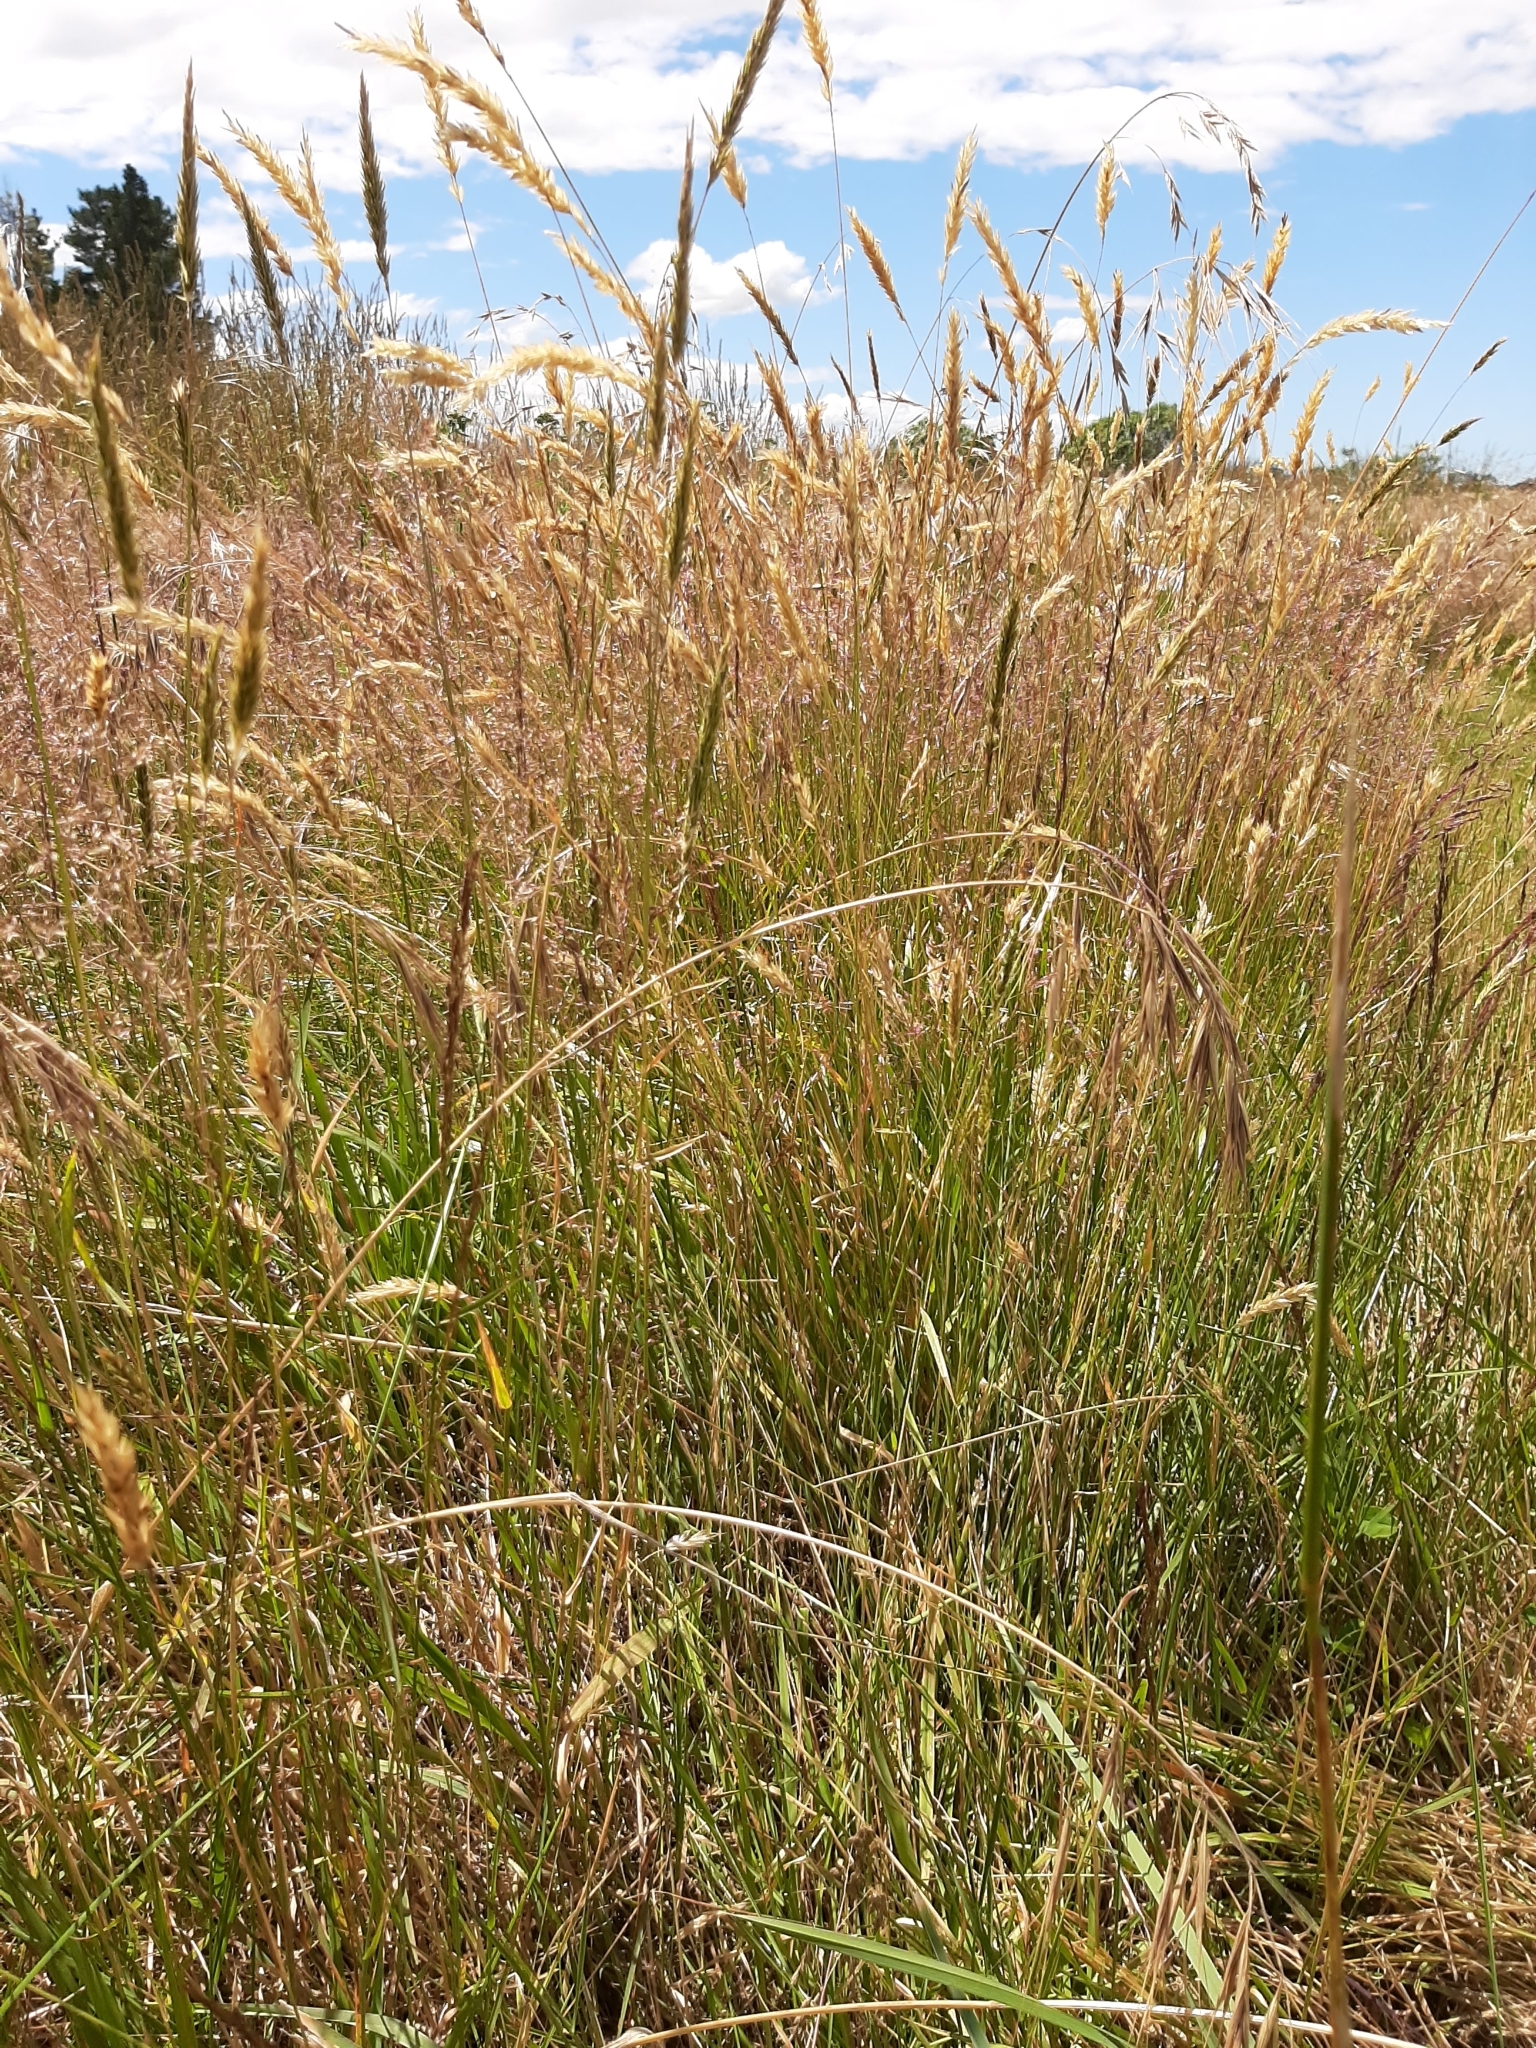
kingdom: Plantae
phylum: Tracheophyta
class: Liliopsida
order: Poales
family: Poaceae
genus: Anthoxanthum
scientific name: Anthoxanthum odoratum
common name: Sweet vernalgrass
